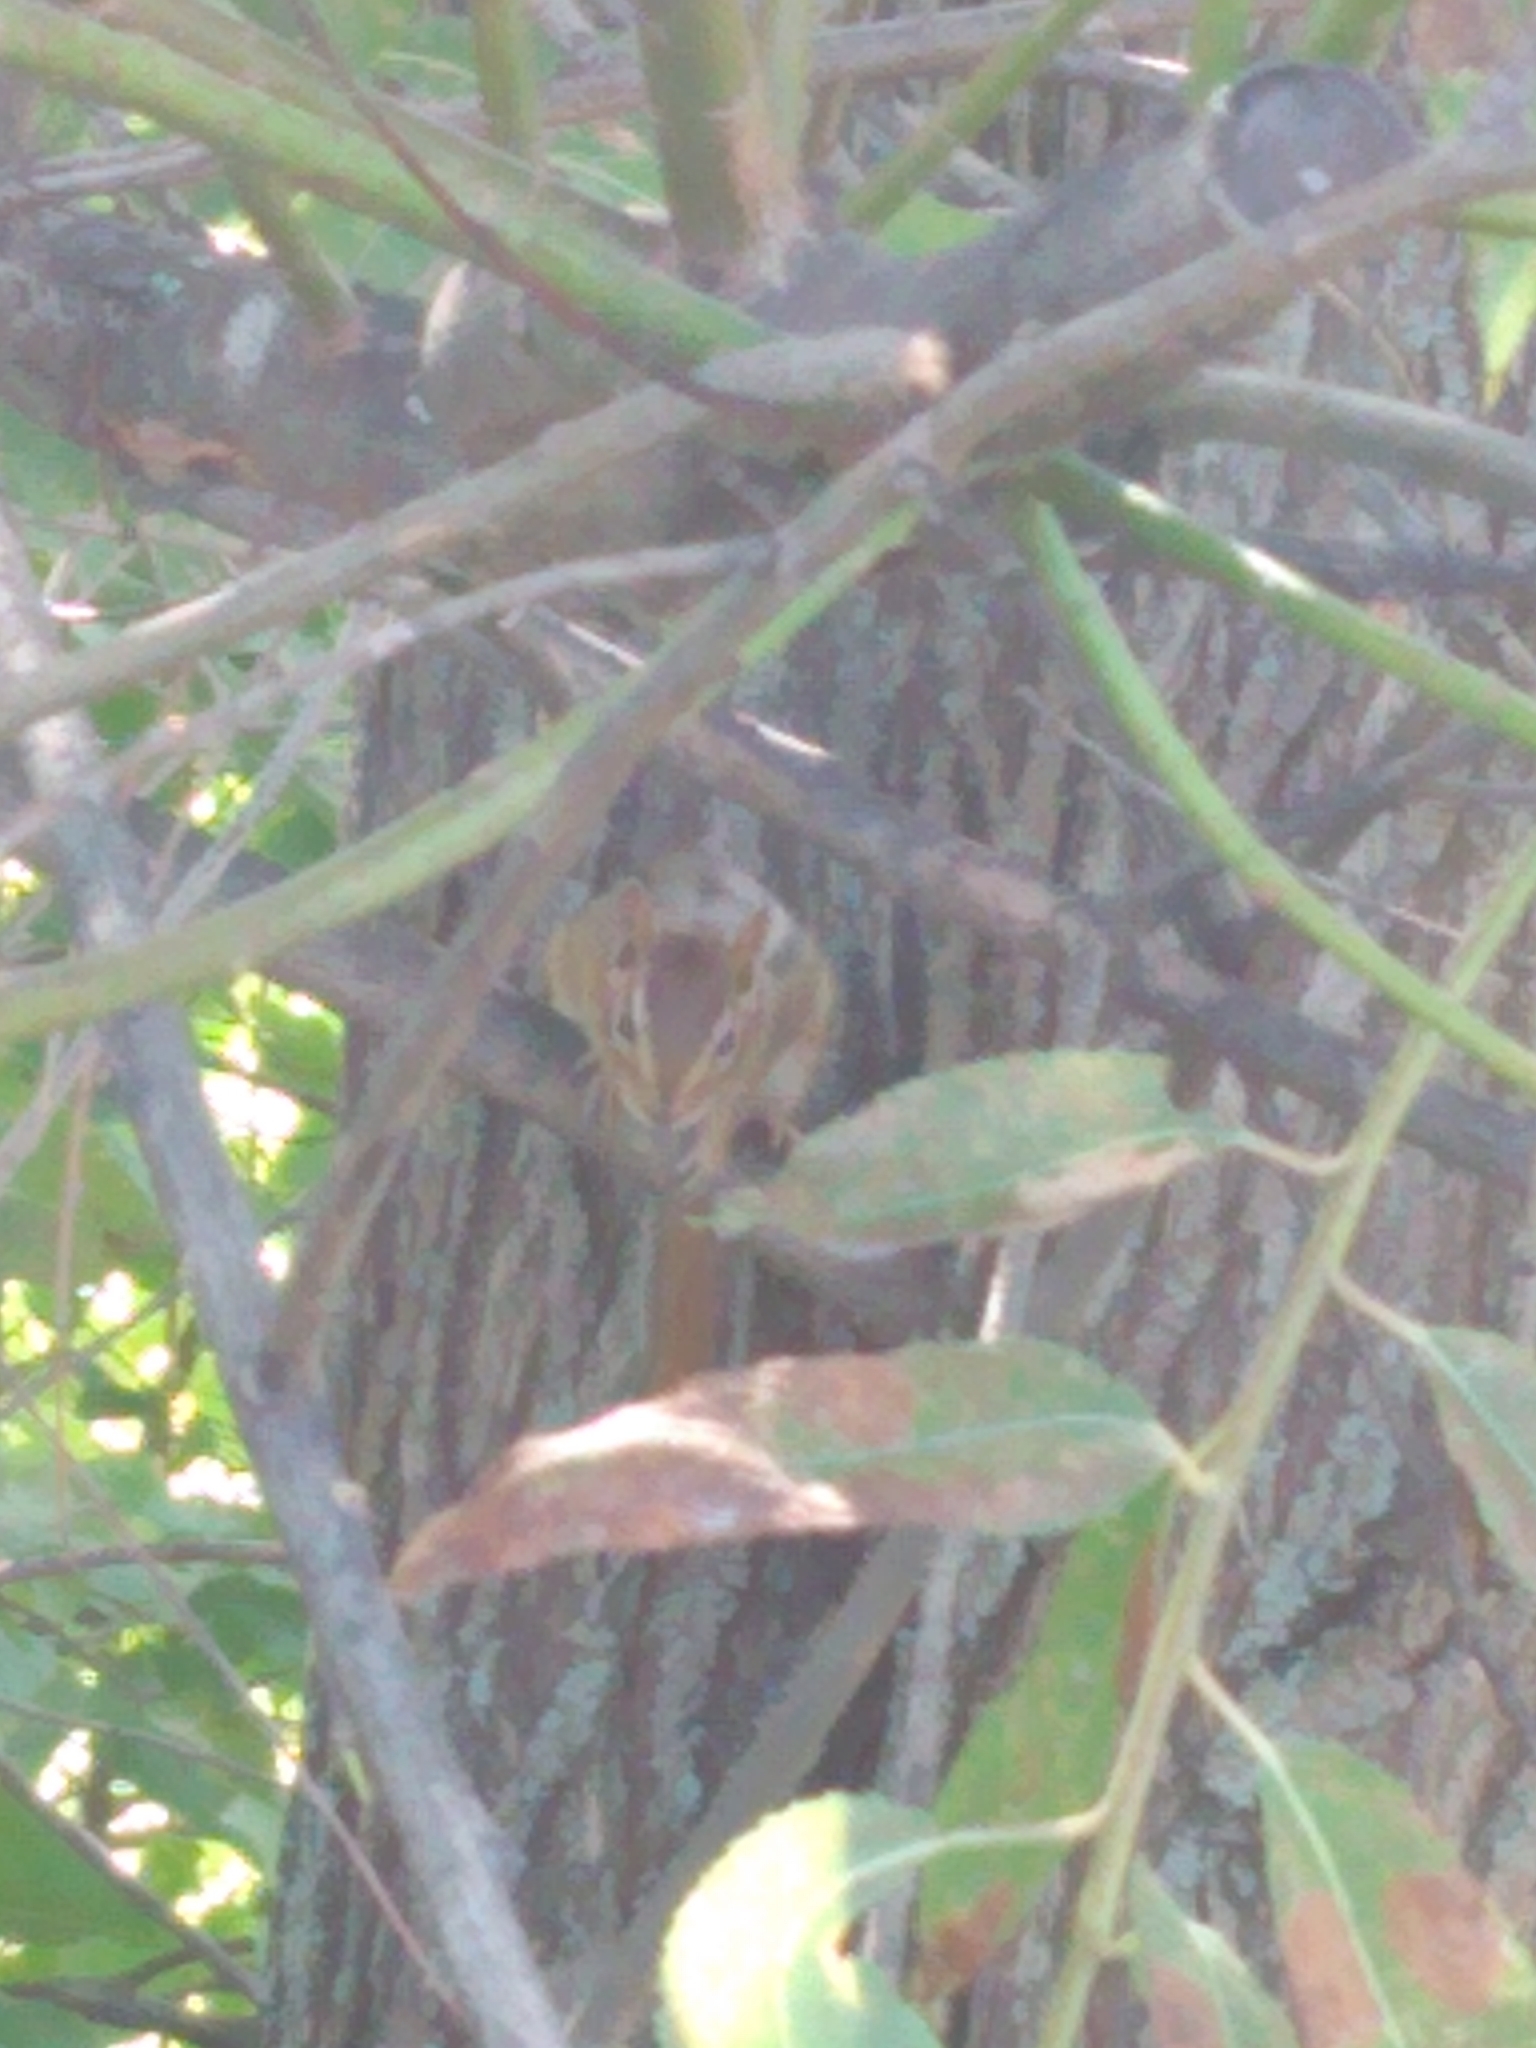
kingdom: Animalia
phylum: Chordata
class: Mammalia
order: Rodentia
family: Sciuridae
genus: Tamias
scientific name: Tamias striatus
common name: Eastern chipmunk
